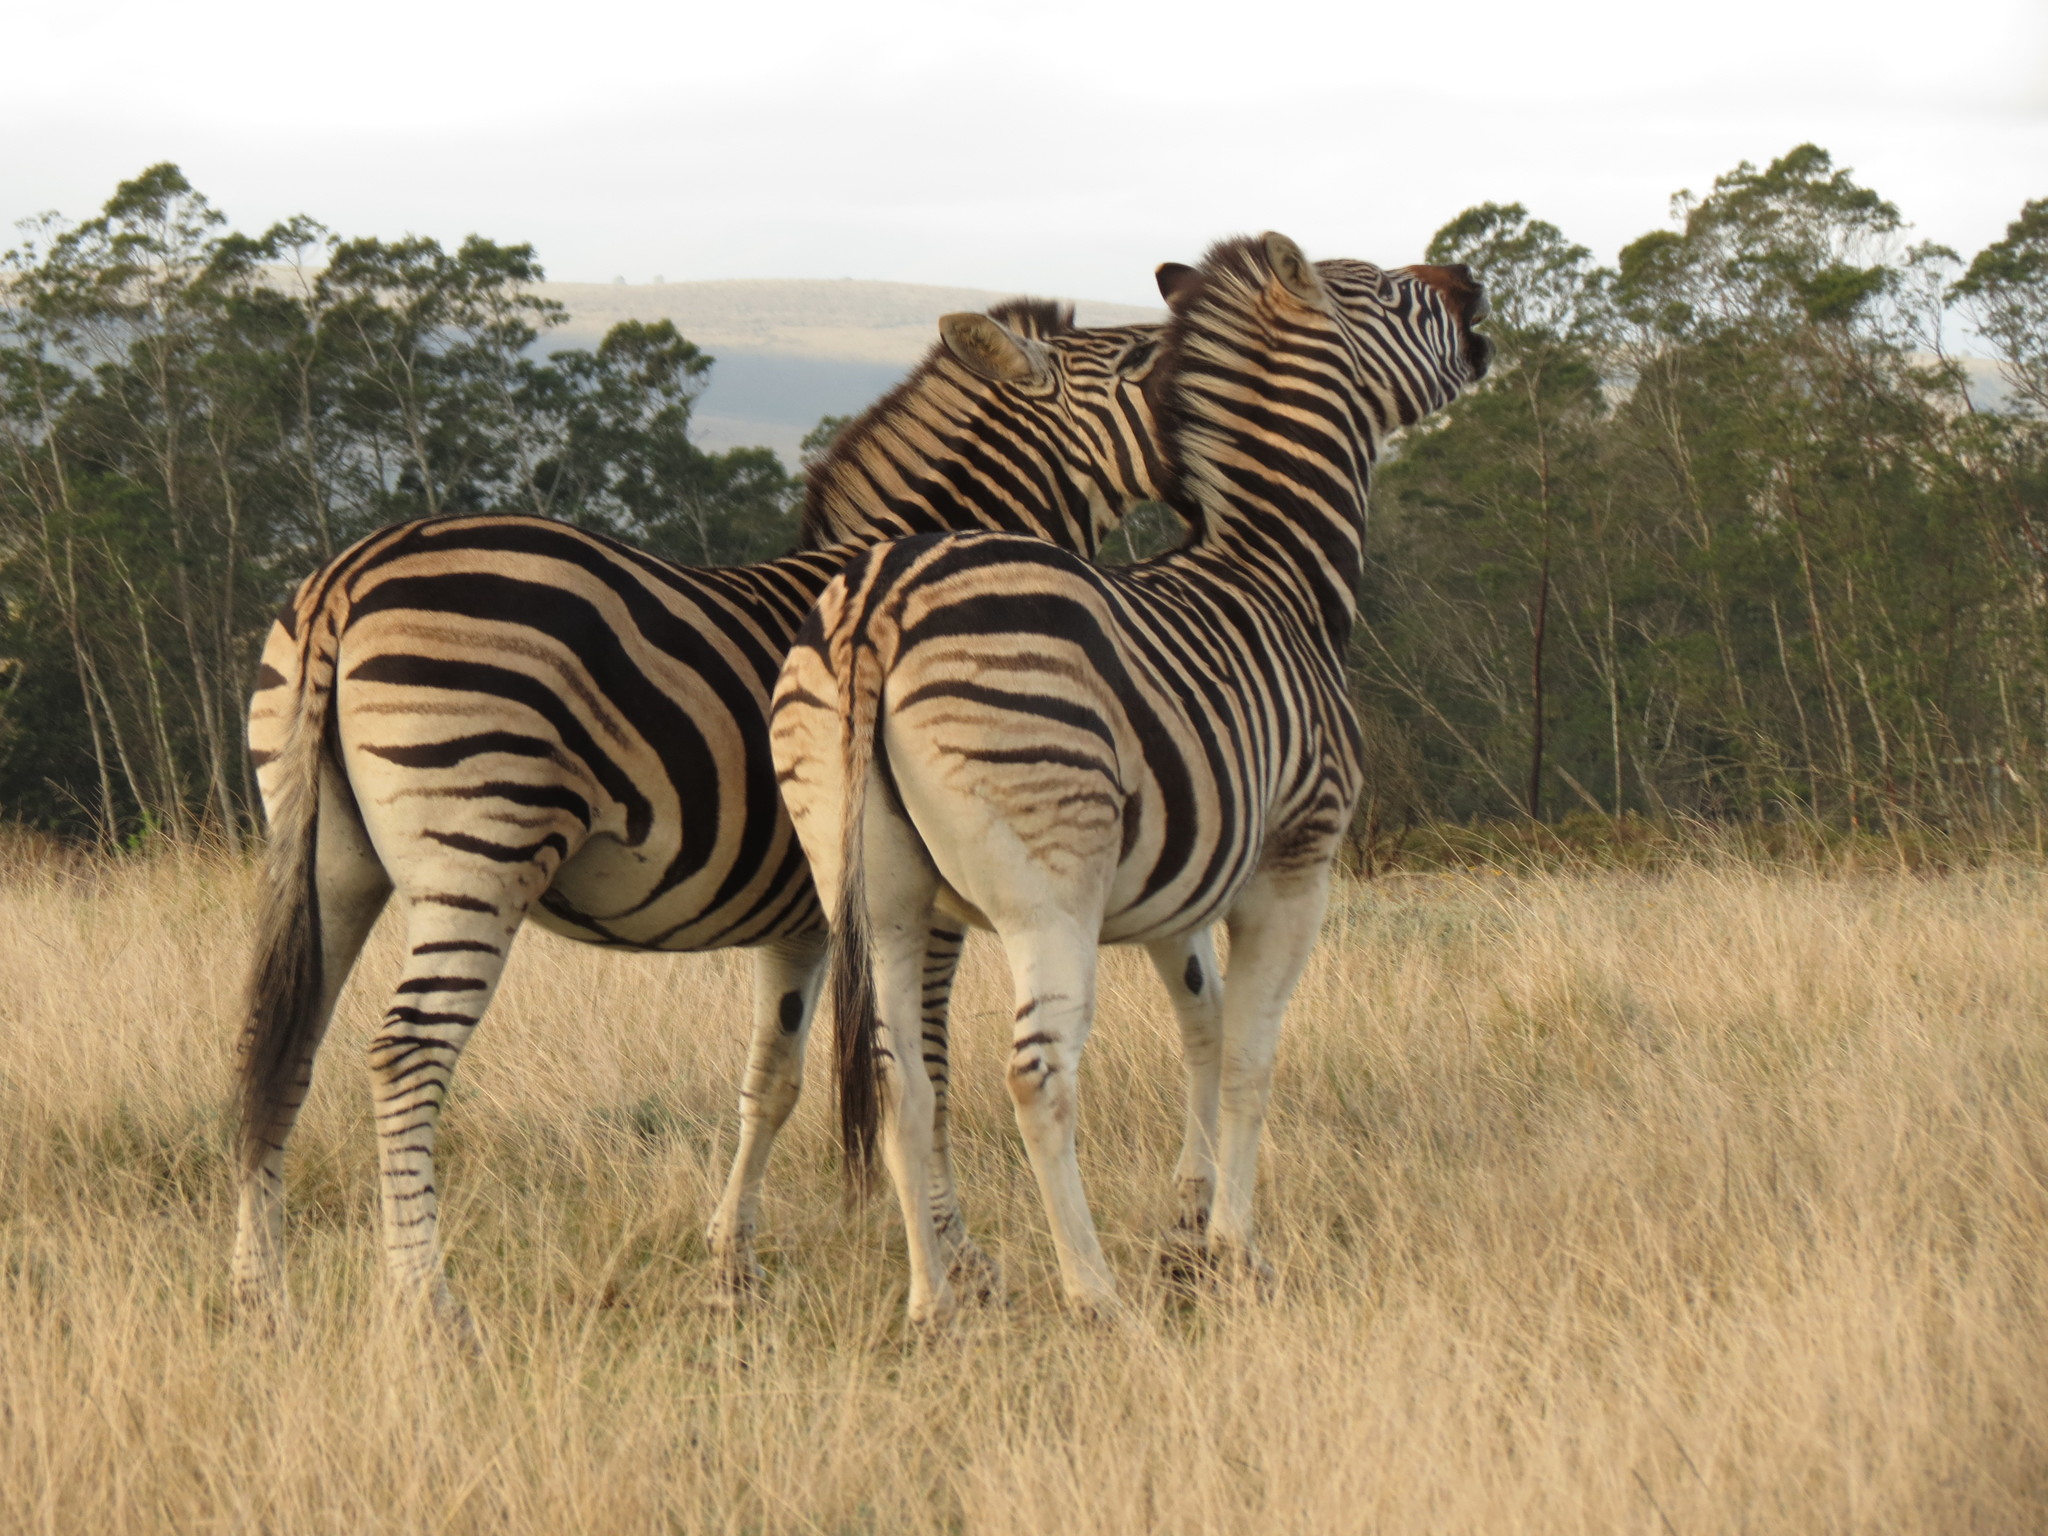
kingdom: Animalia
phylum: Chordata
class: Mammalia
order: Perissodactyla
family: Equidae
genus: Equus
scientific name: Equus quagga
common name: Plains zebra
